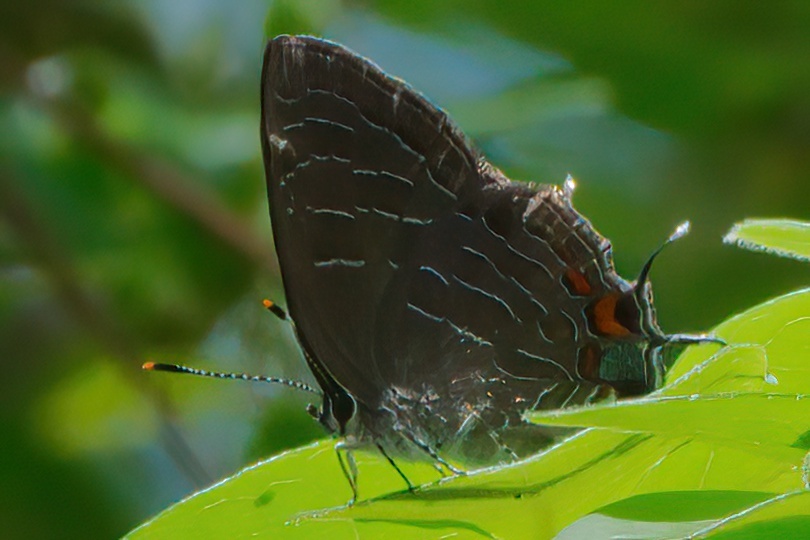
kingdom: Animalia
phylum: Arthropoda
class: Insecta
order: Lepidoptera
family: Lycaenidae
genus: Satyrium
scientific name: Satyrium liparops
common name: Striped hairstreak
